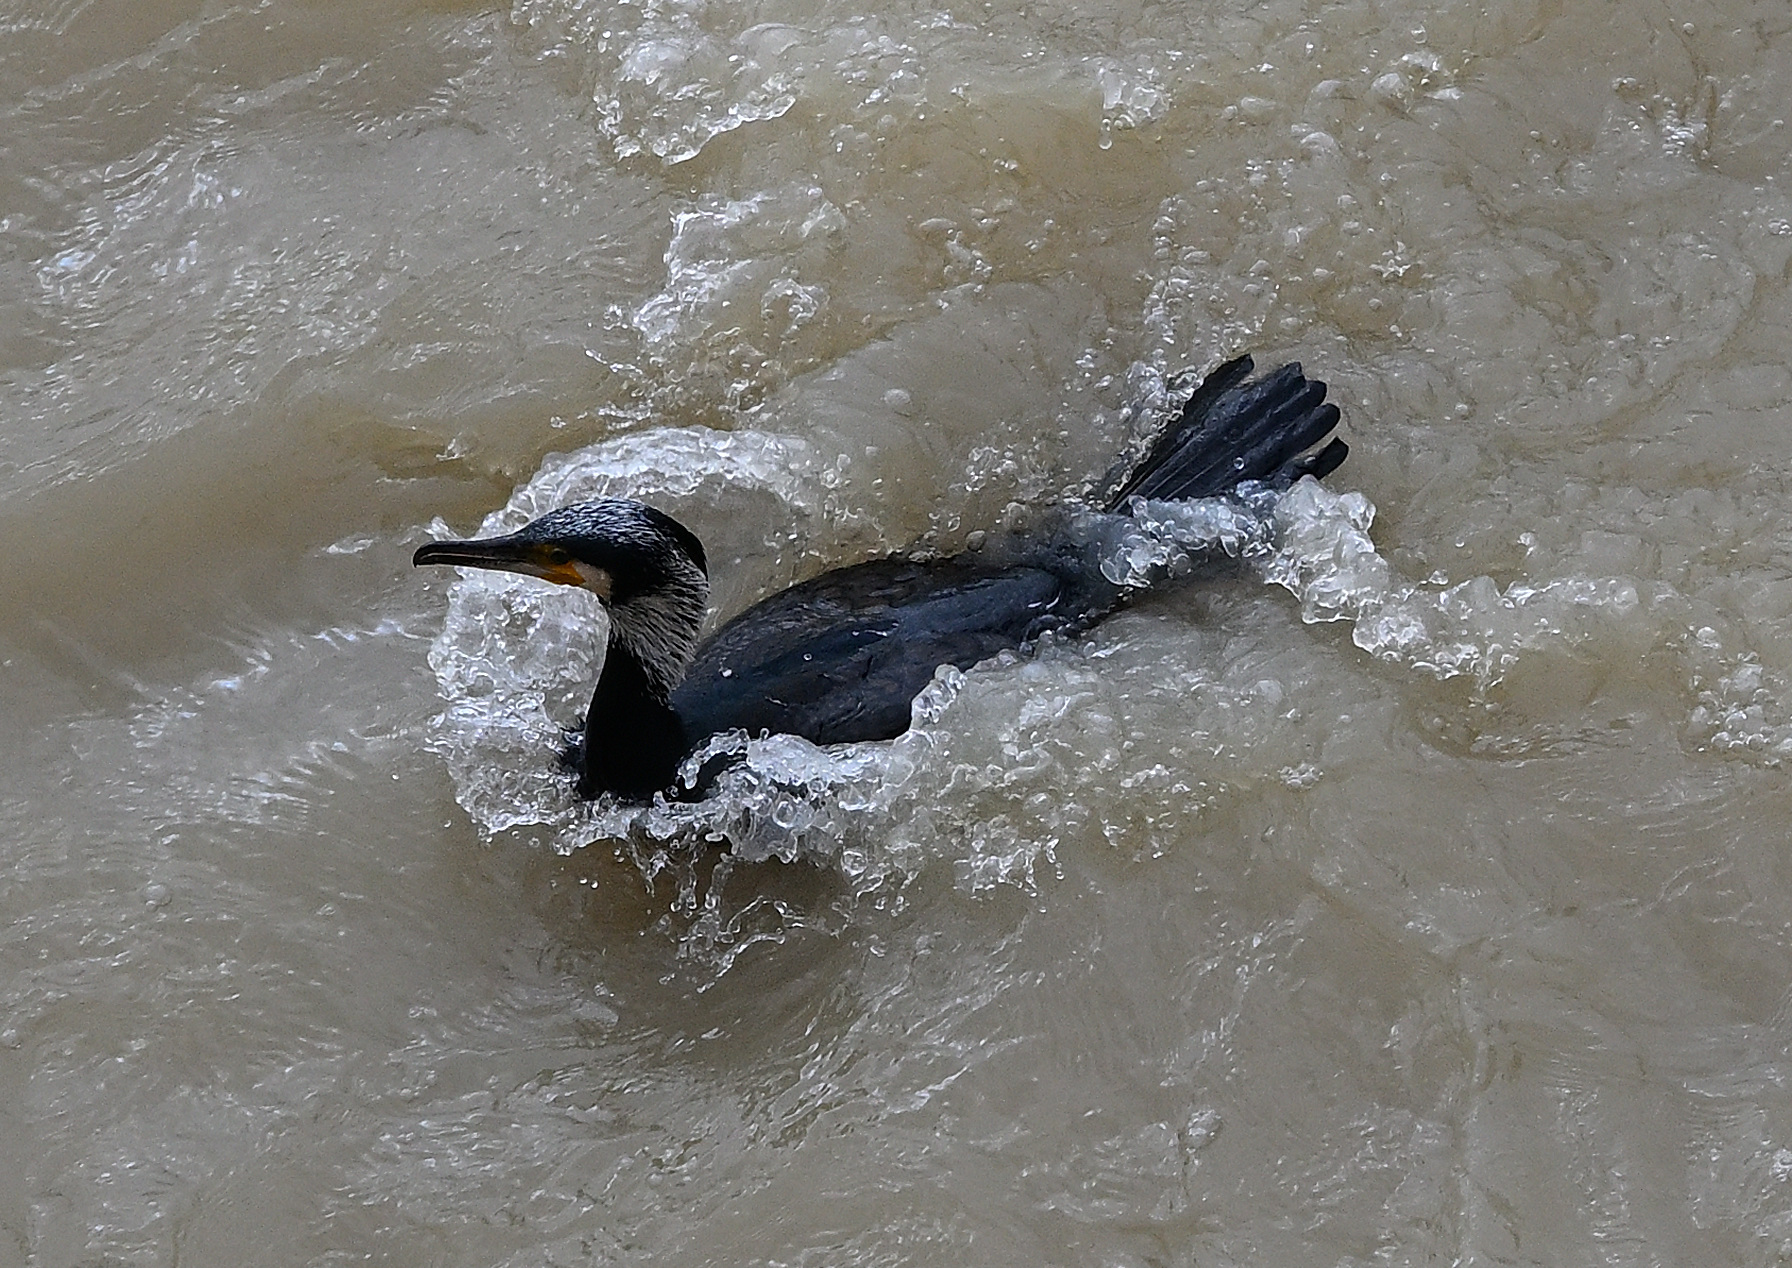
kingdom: Animalia
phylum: Chordata
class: Aves
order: Suliformes
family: Phalacrocoracidae
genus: Phalacrocorax
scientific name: Phalacrocorax carbo
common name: Great cormorant
